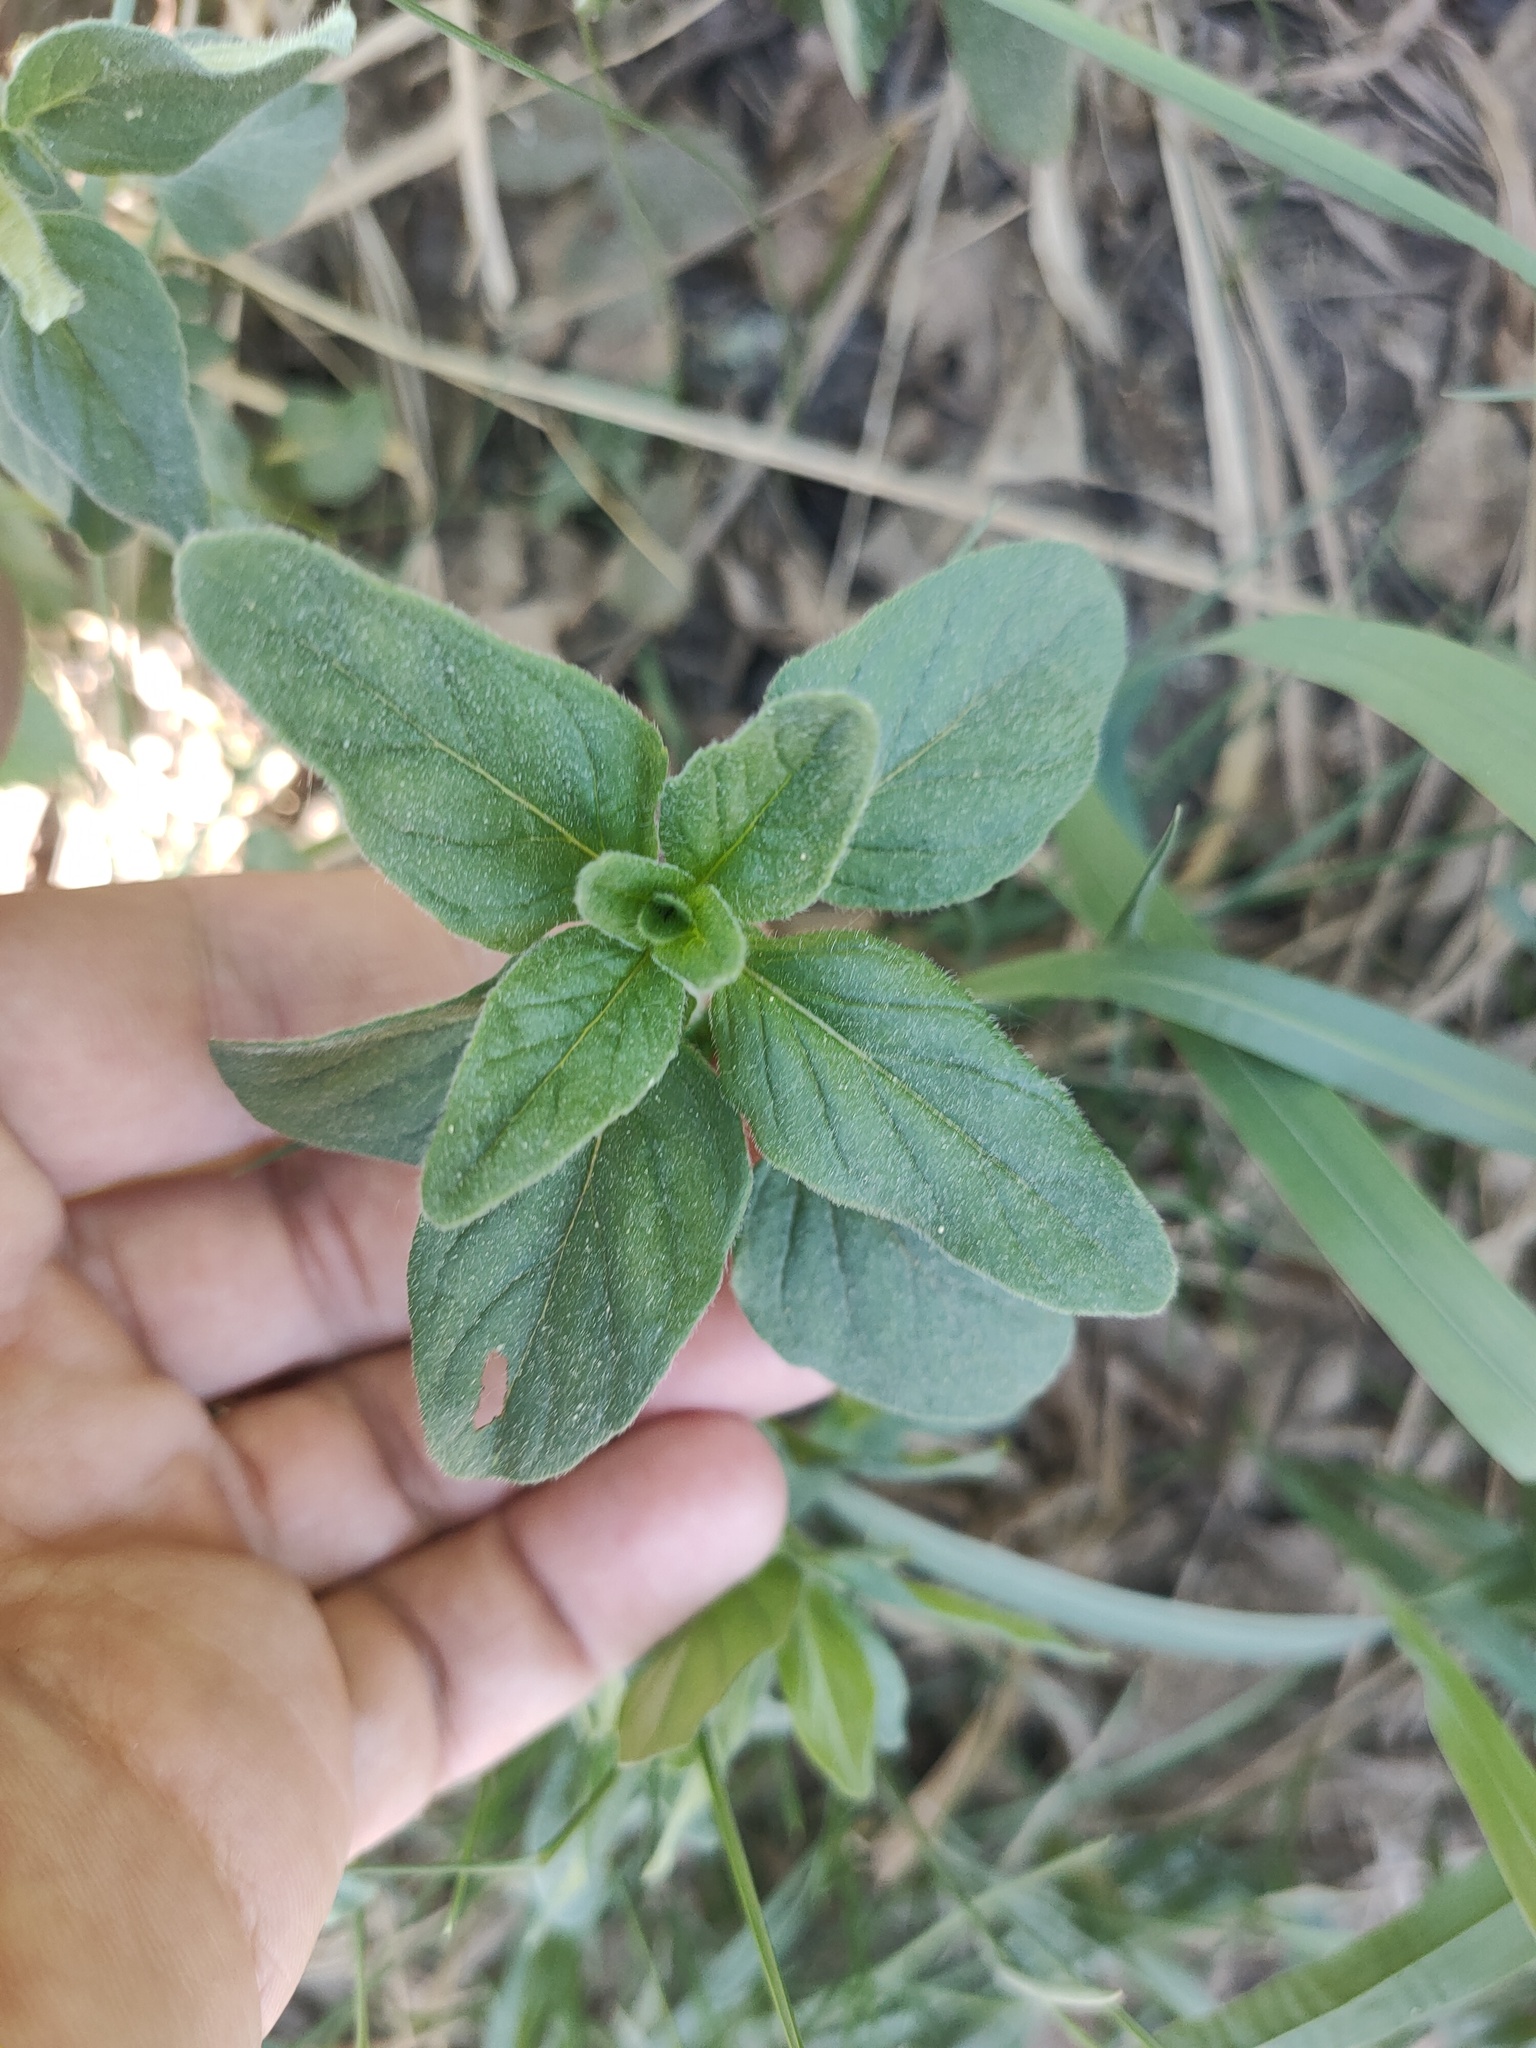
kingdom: Plantae
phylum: Tracheophyta
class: Magnoliopsida
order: Lamiales
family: Lamiaceae
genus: Origanum
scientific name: Origanum vulgare
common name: Wild marjoram
